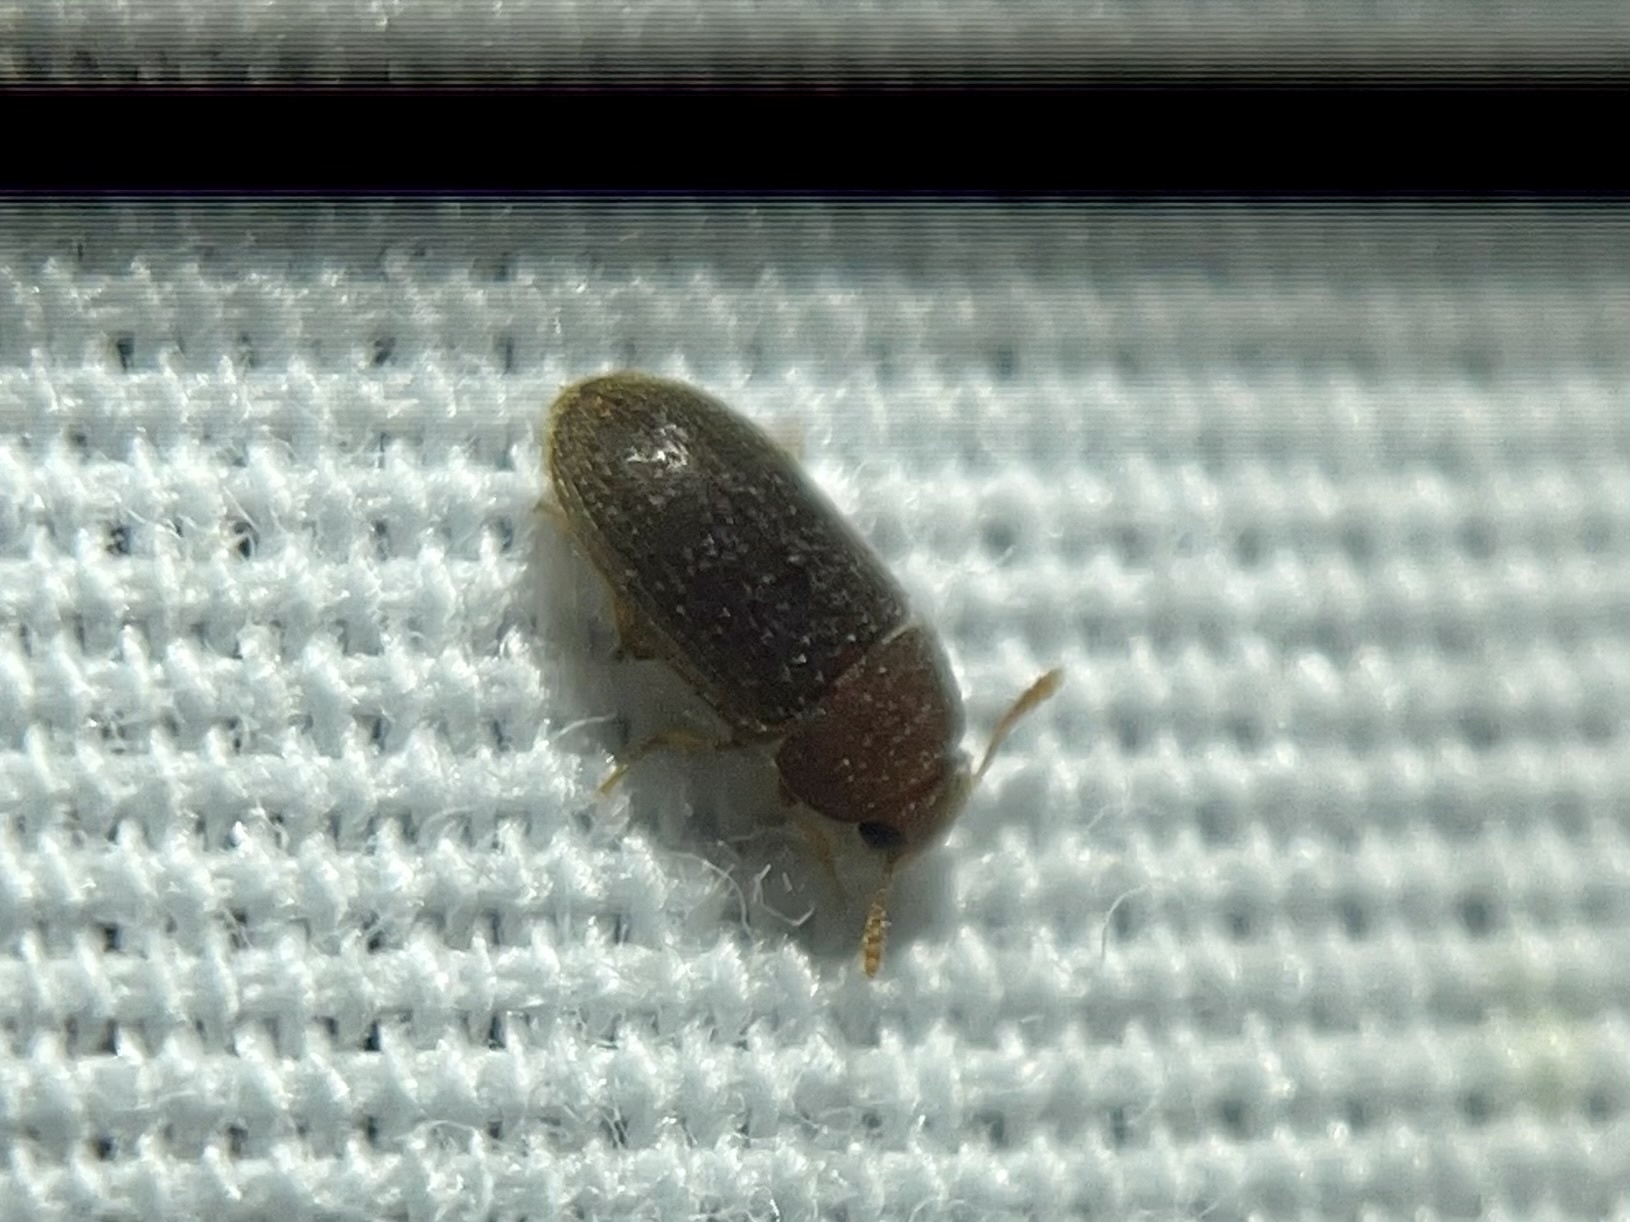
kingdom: Animalia
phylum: Arthropoda
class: Insecta
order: Coleoptera
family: Mycetophagidae
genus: Typhaea
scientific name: Typhaea stercorea
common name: Hairy fungus beetle
